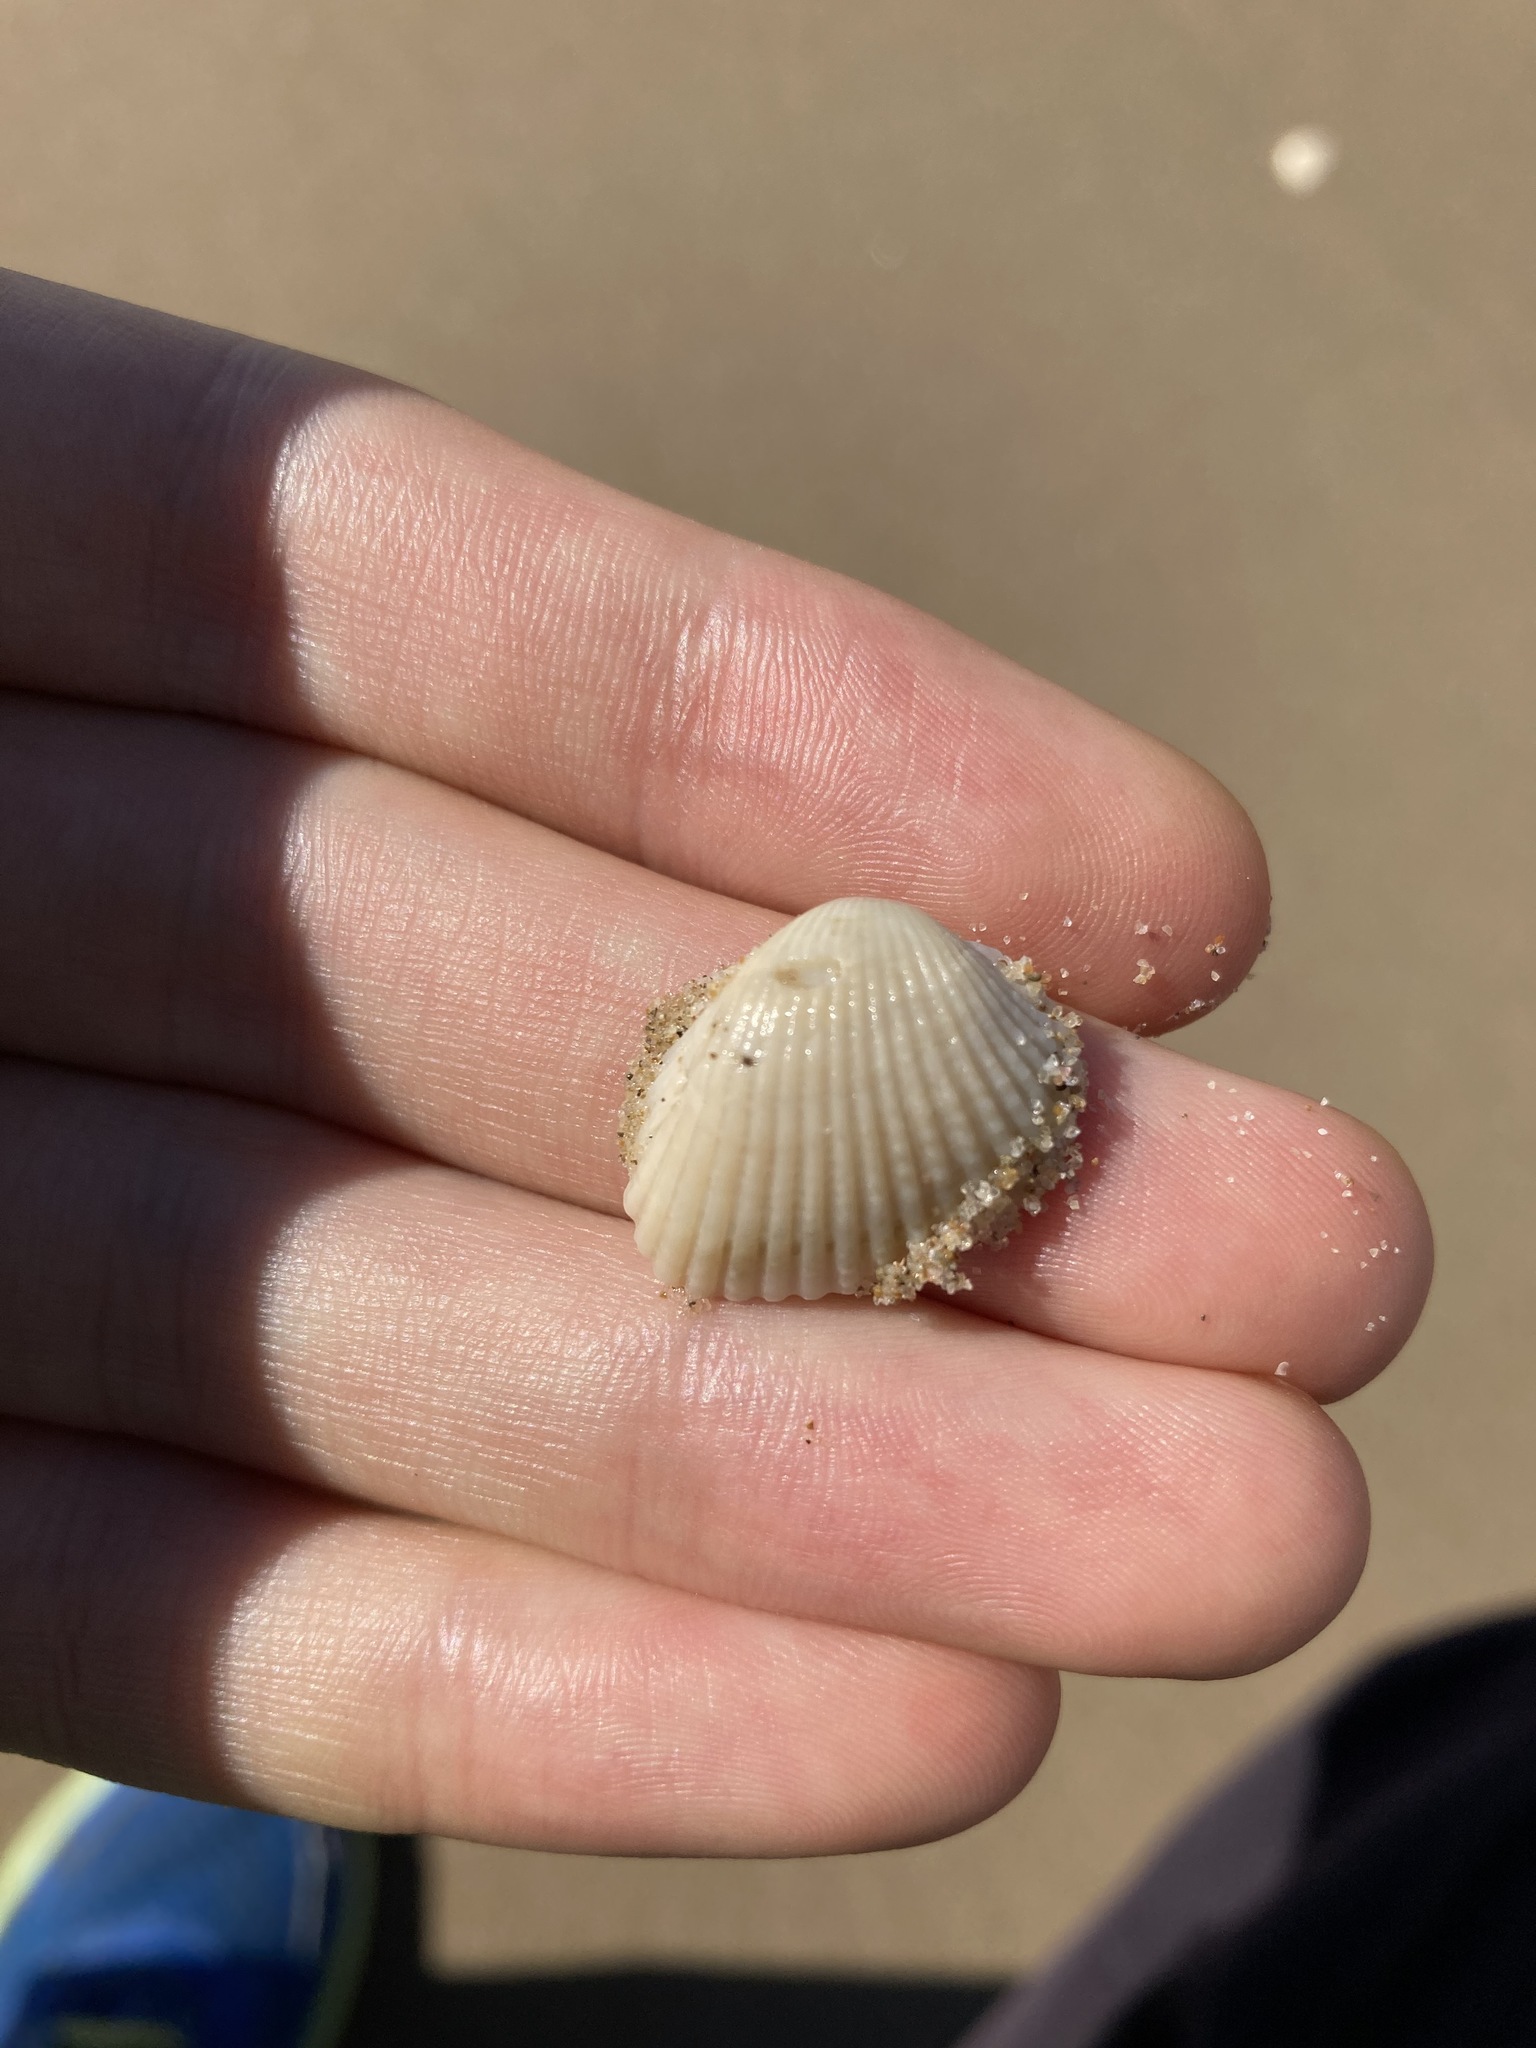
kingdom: Animalia
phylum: Mollusca
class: Bivalvia
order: Arcida
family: Arcidae
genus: Anadara
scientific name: Anadara trapezia
